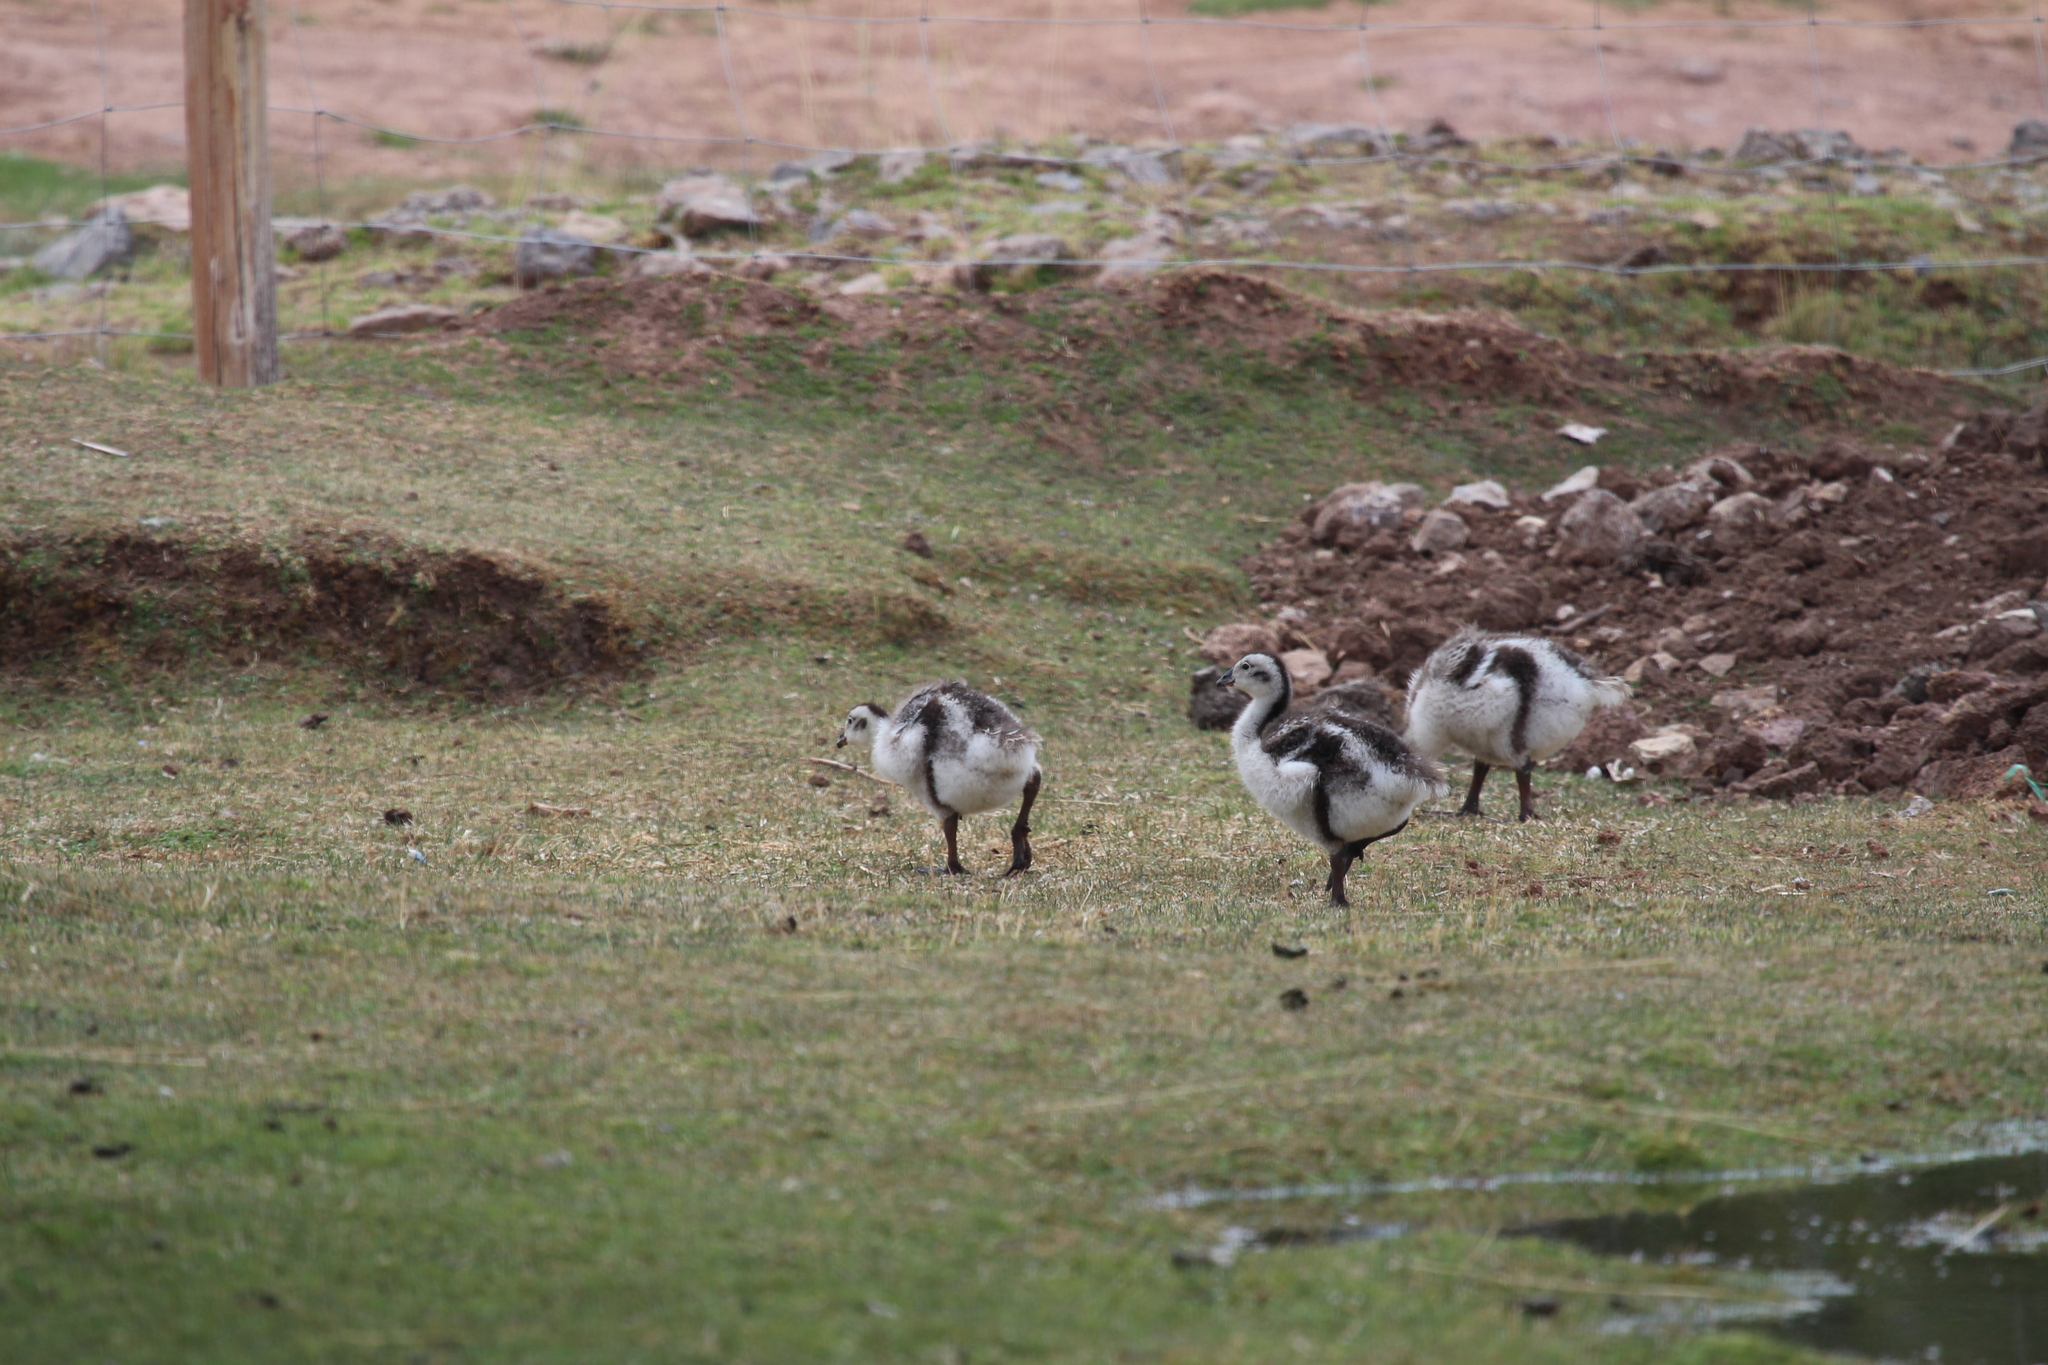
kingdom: Animalia
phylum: Chordata
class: Aves
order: Anseriformes
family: Anatidae
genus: Chloephaga
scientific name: Chloephaga melanoptera
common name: Andean goose
